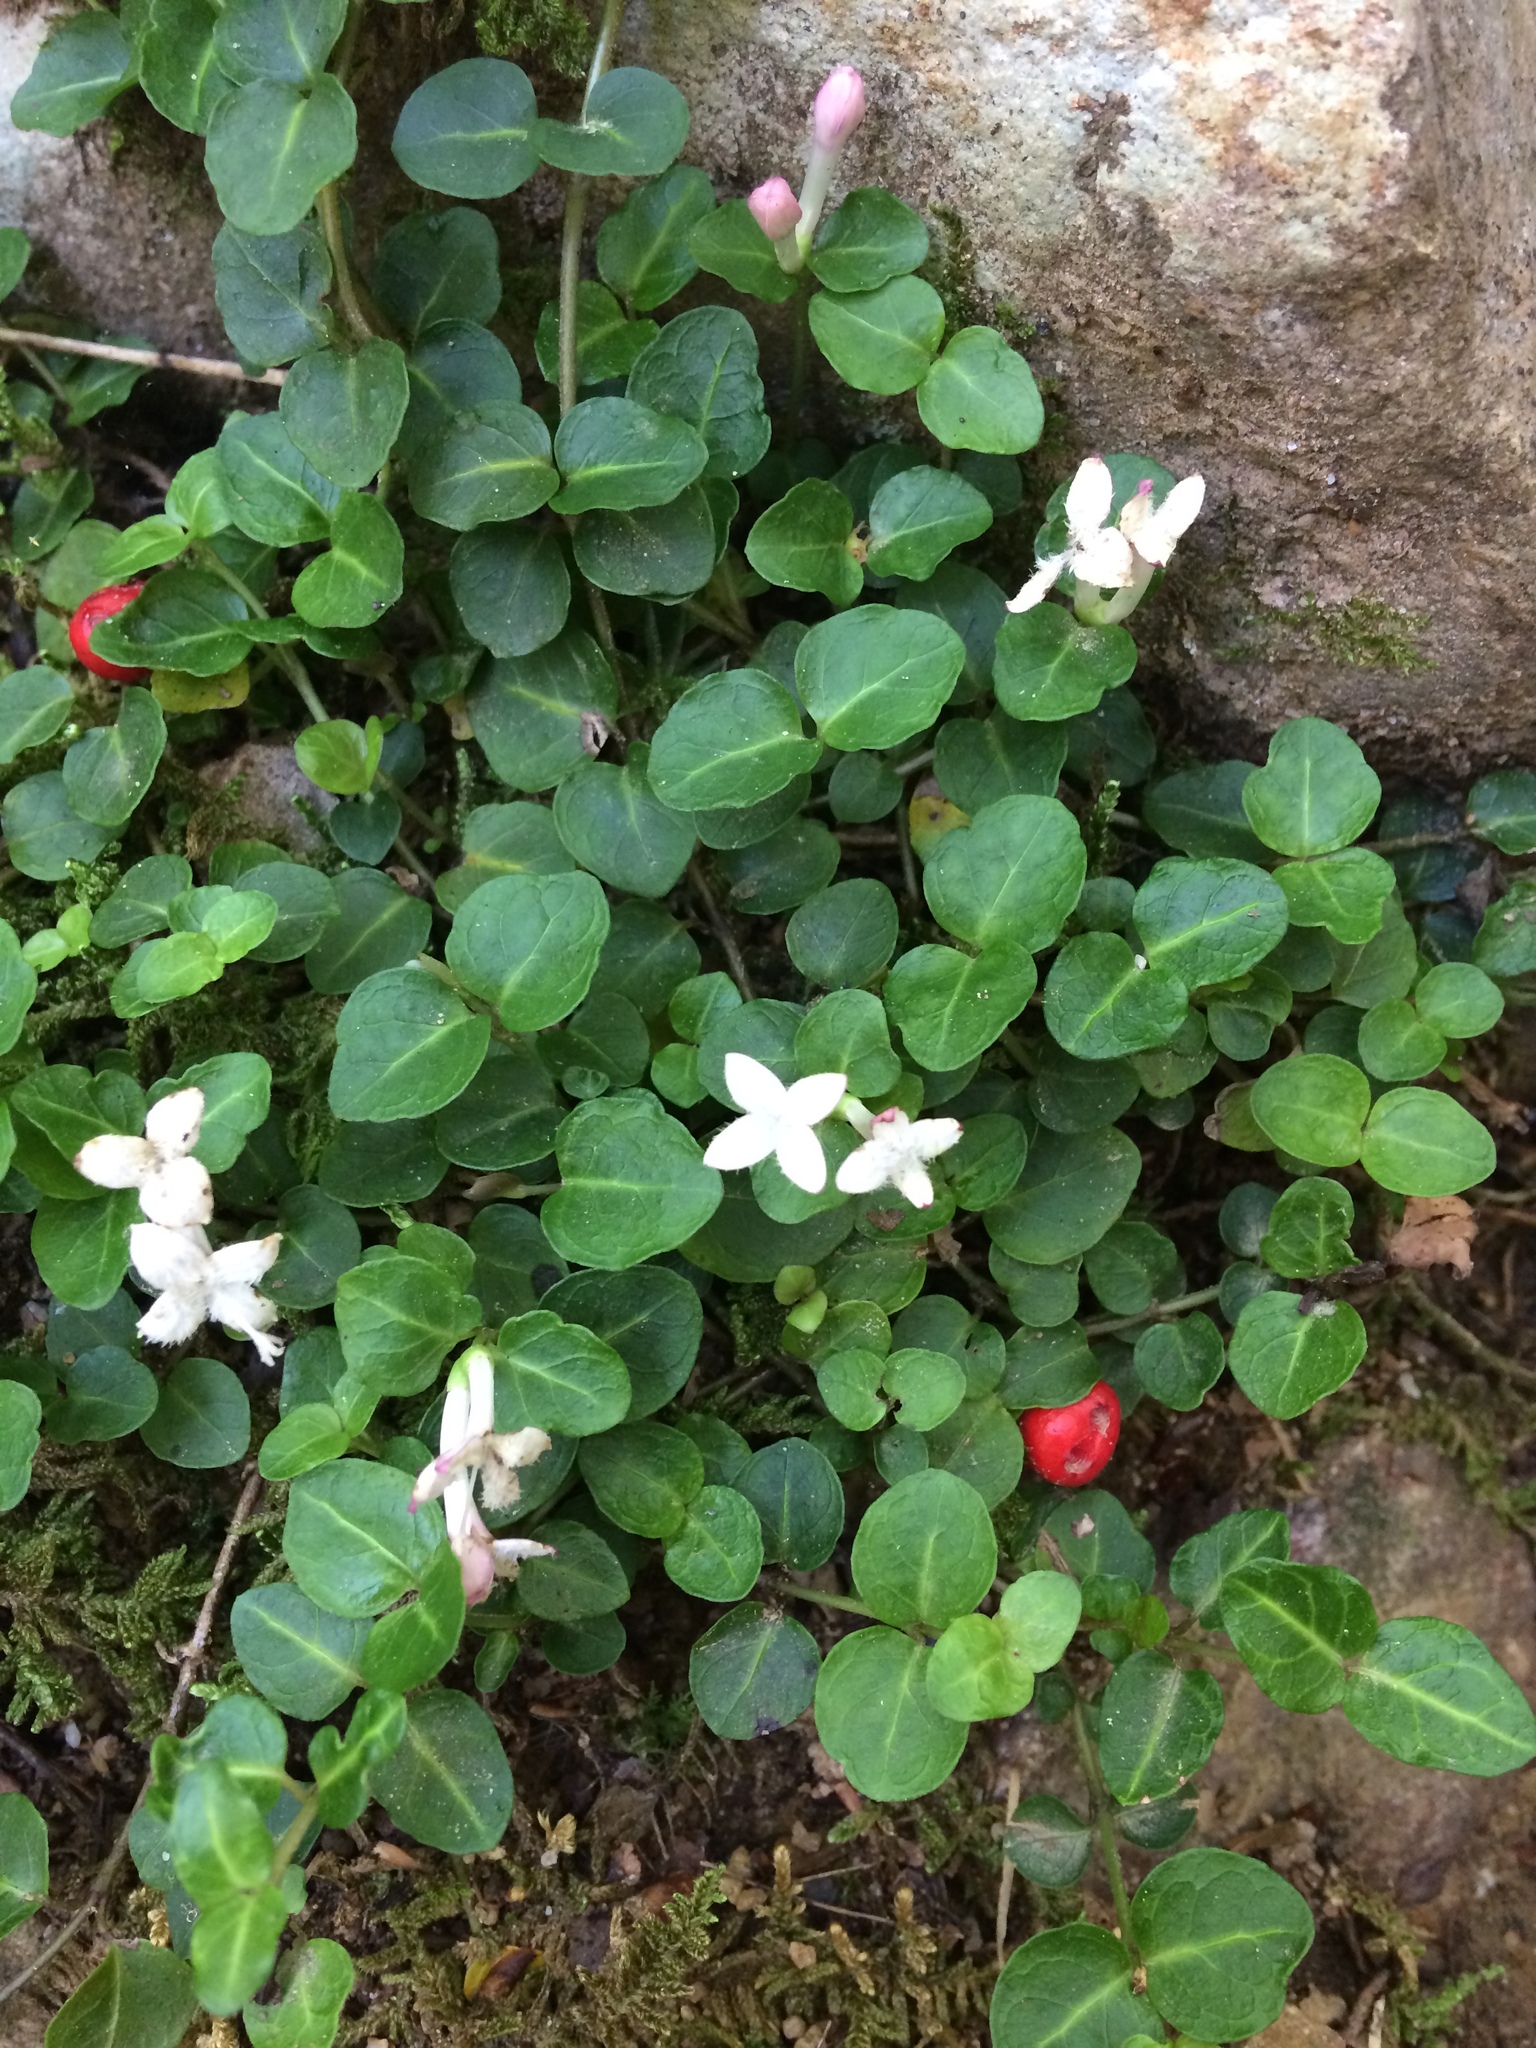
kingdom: Plantae
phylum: Tracheophyta
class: Magnoliopsida
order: Gentianales
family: Rubiaceae
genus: Mitchella
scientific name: Mitchella repens
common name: Partridge-berry
